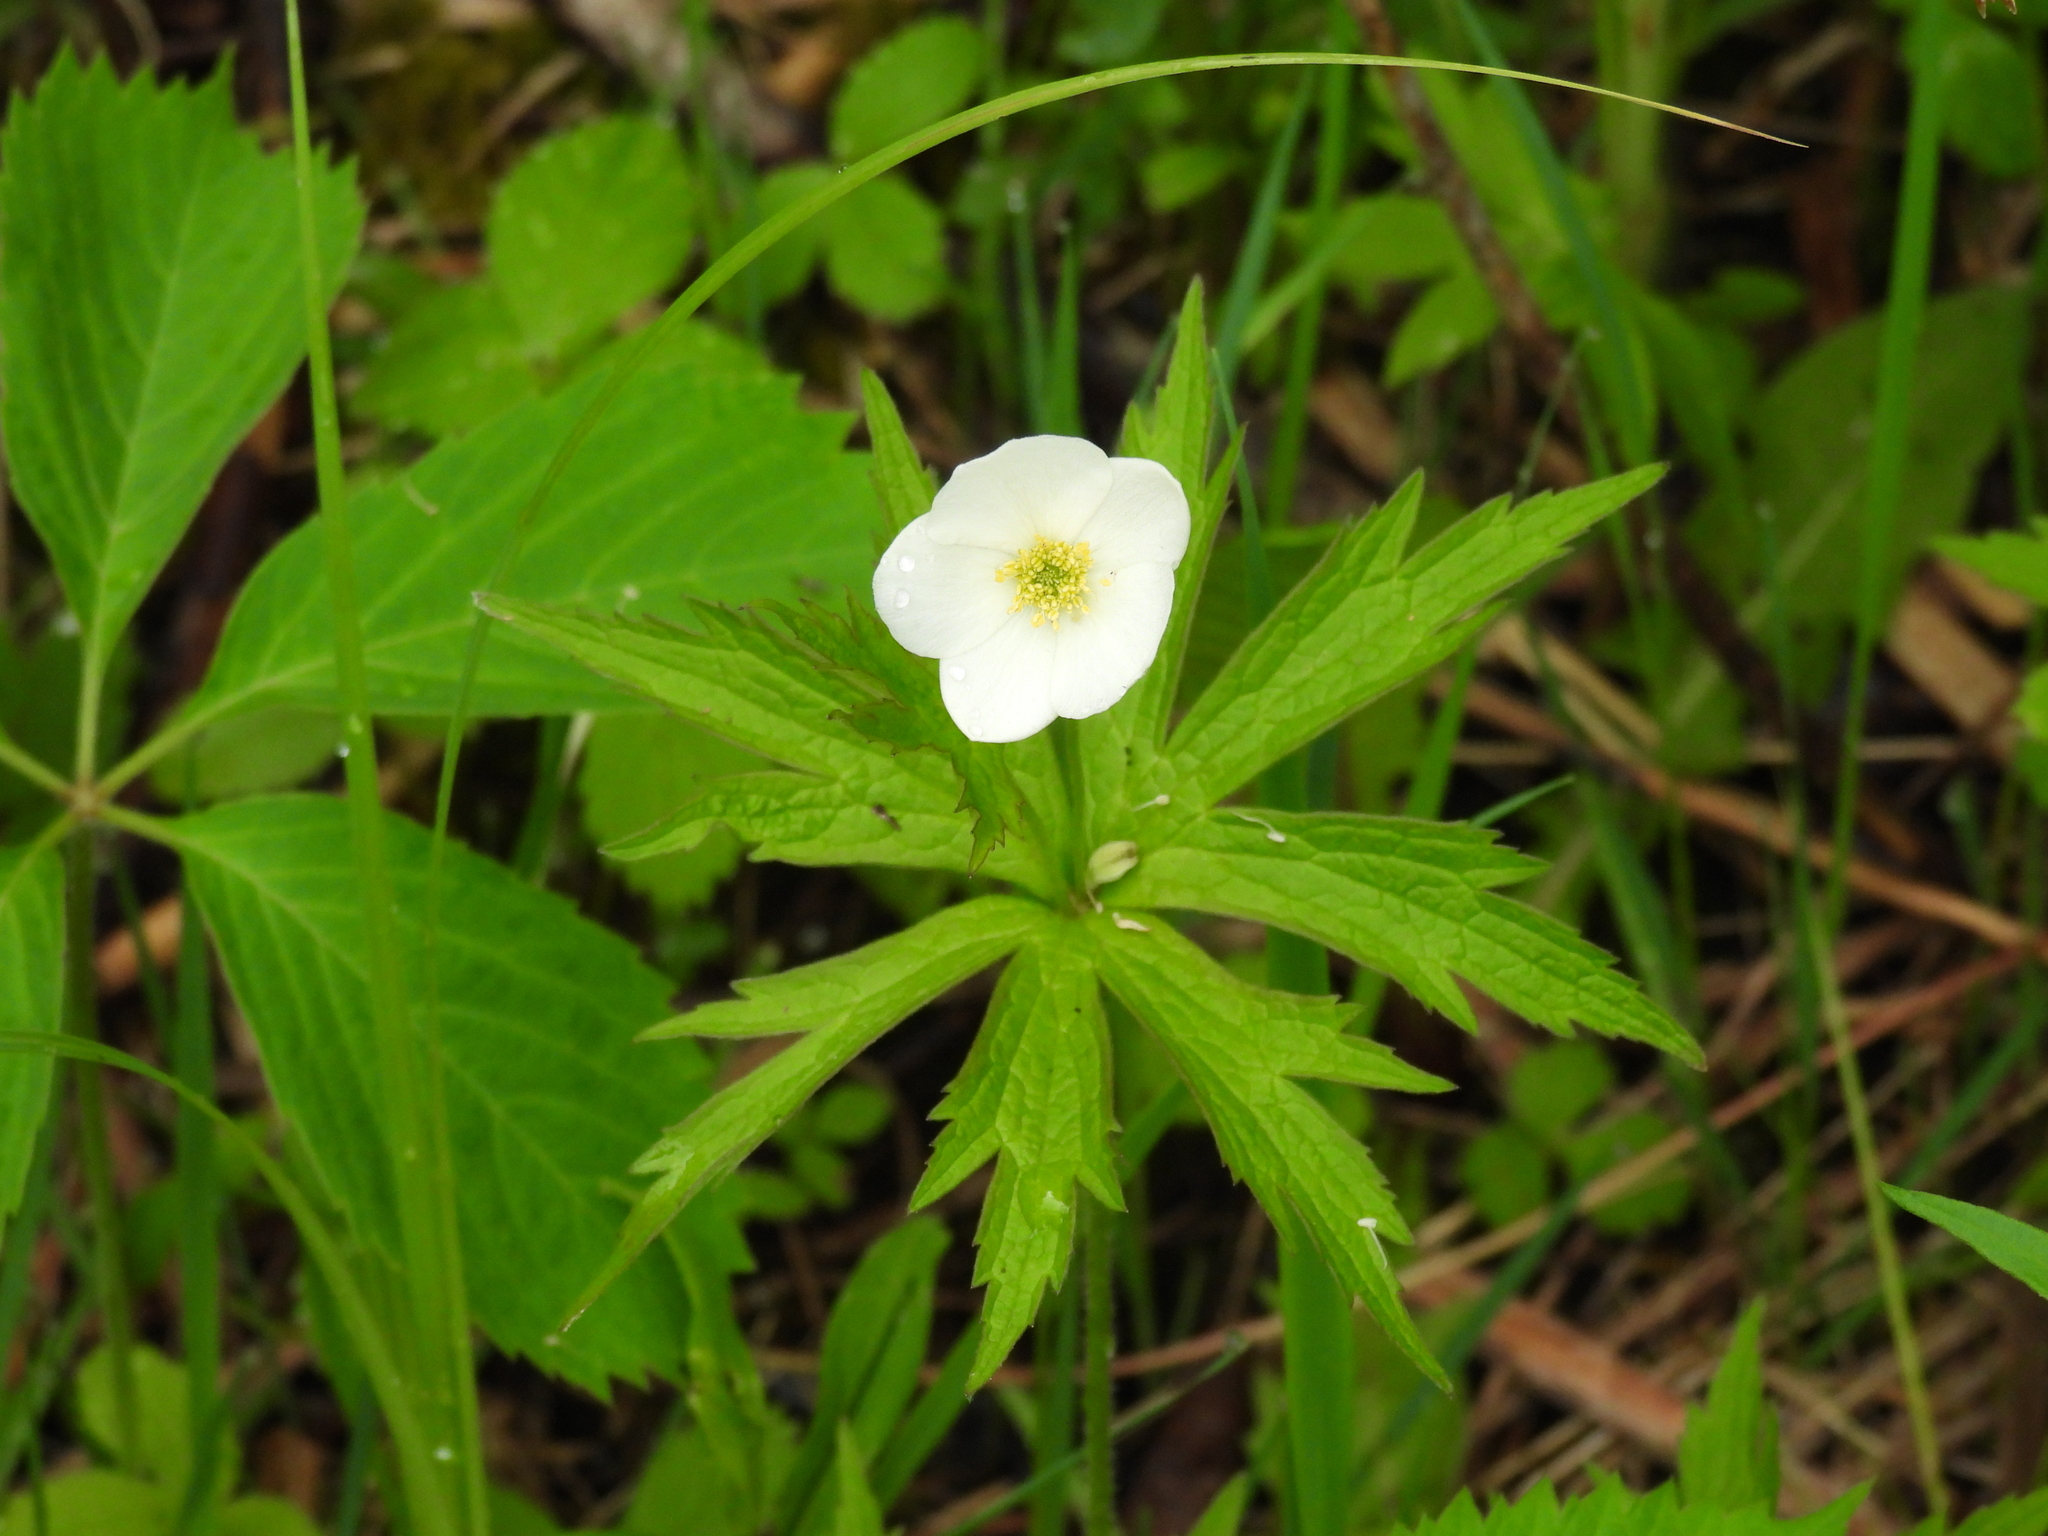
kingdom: Plantae
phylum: Tracheophyta
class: Magnoliopsida
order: Ranunculales
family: Ranunculaceae
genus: Anemonastrum
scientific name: Anemonastrum canadense
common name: Canada anemone
